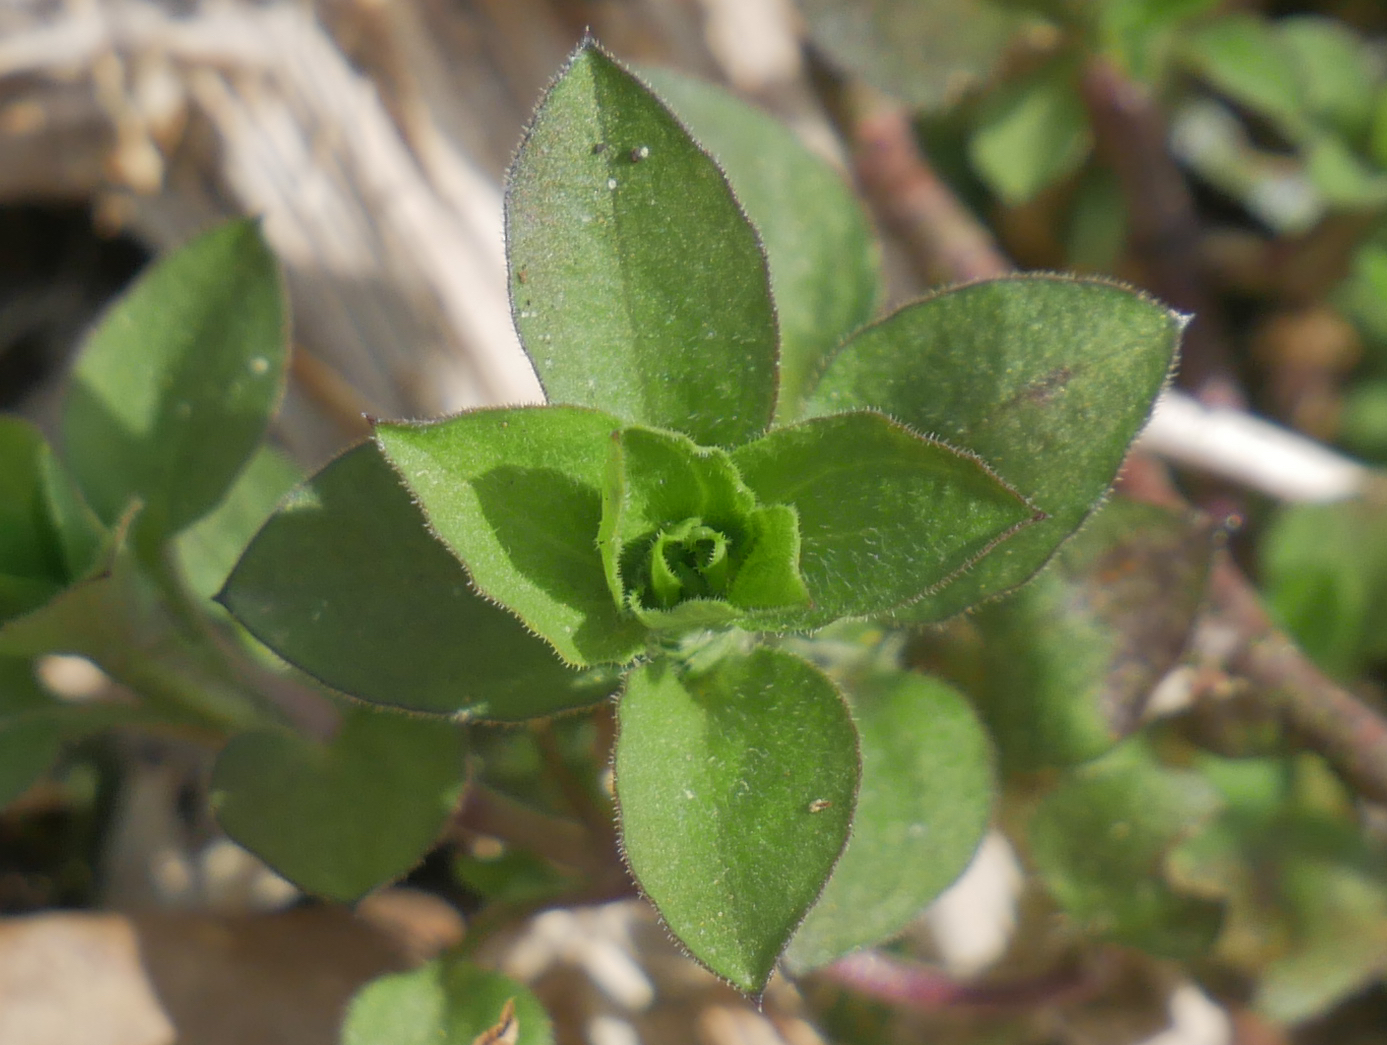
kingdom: Plantae
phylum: Tracheophyta
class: Magnoliopsida
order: Caryophyllales
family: Caryophyllaceae
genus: Moehringia
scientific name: Moehringia trinervia
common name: Three-nerved sandwort
